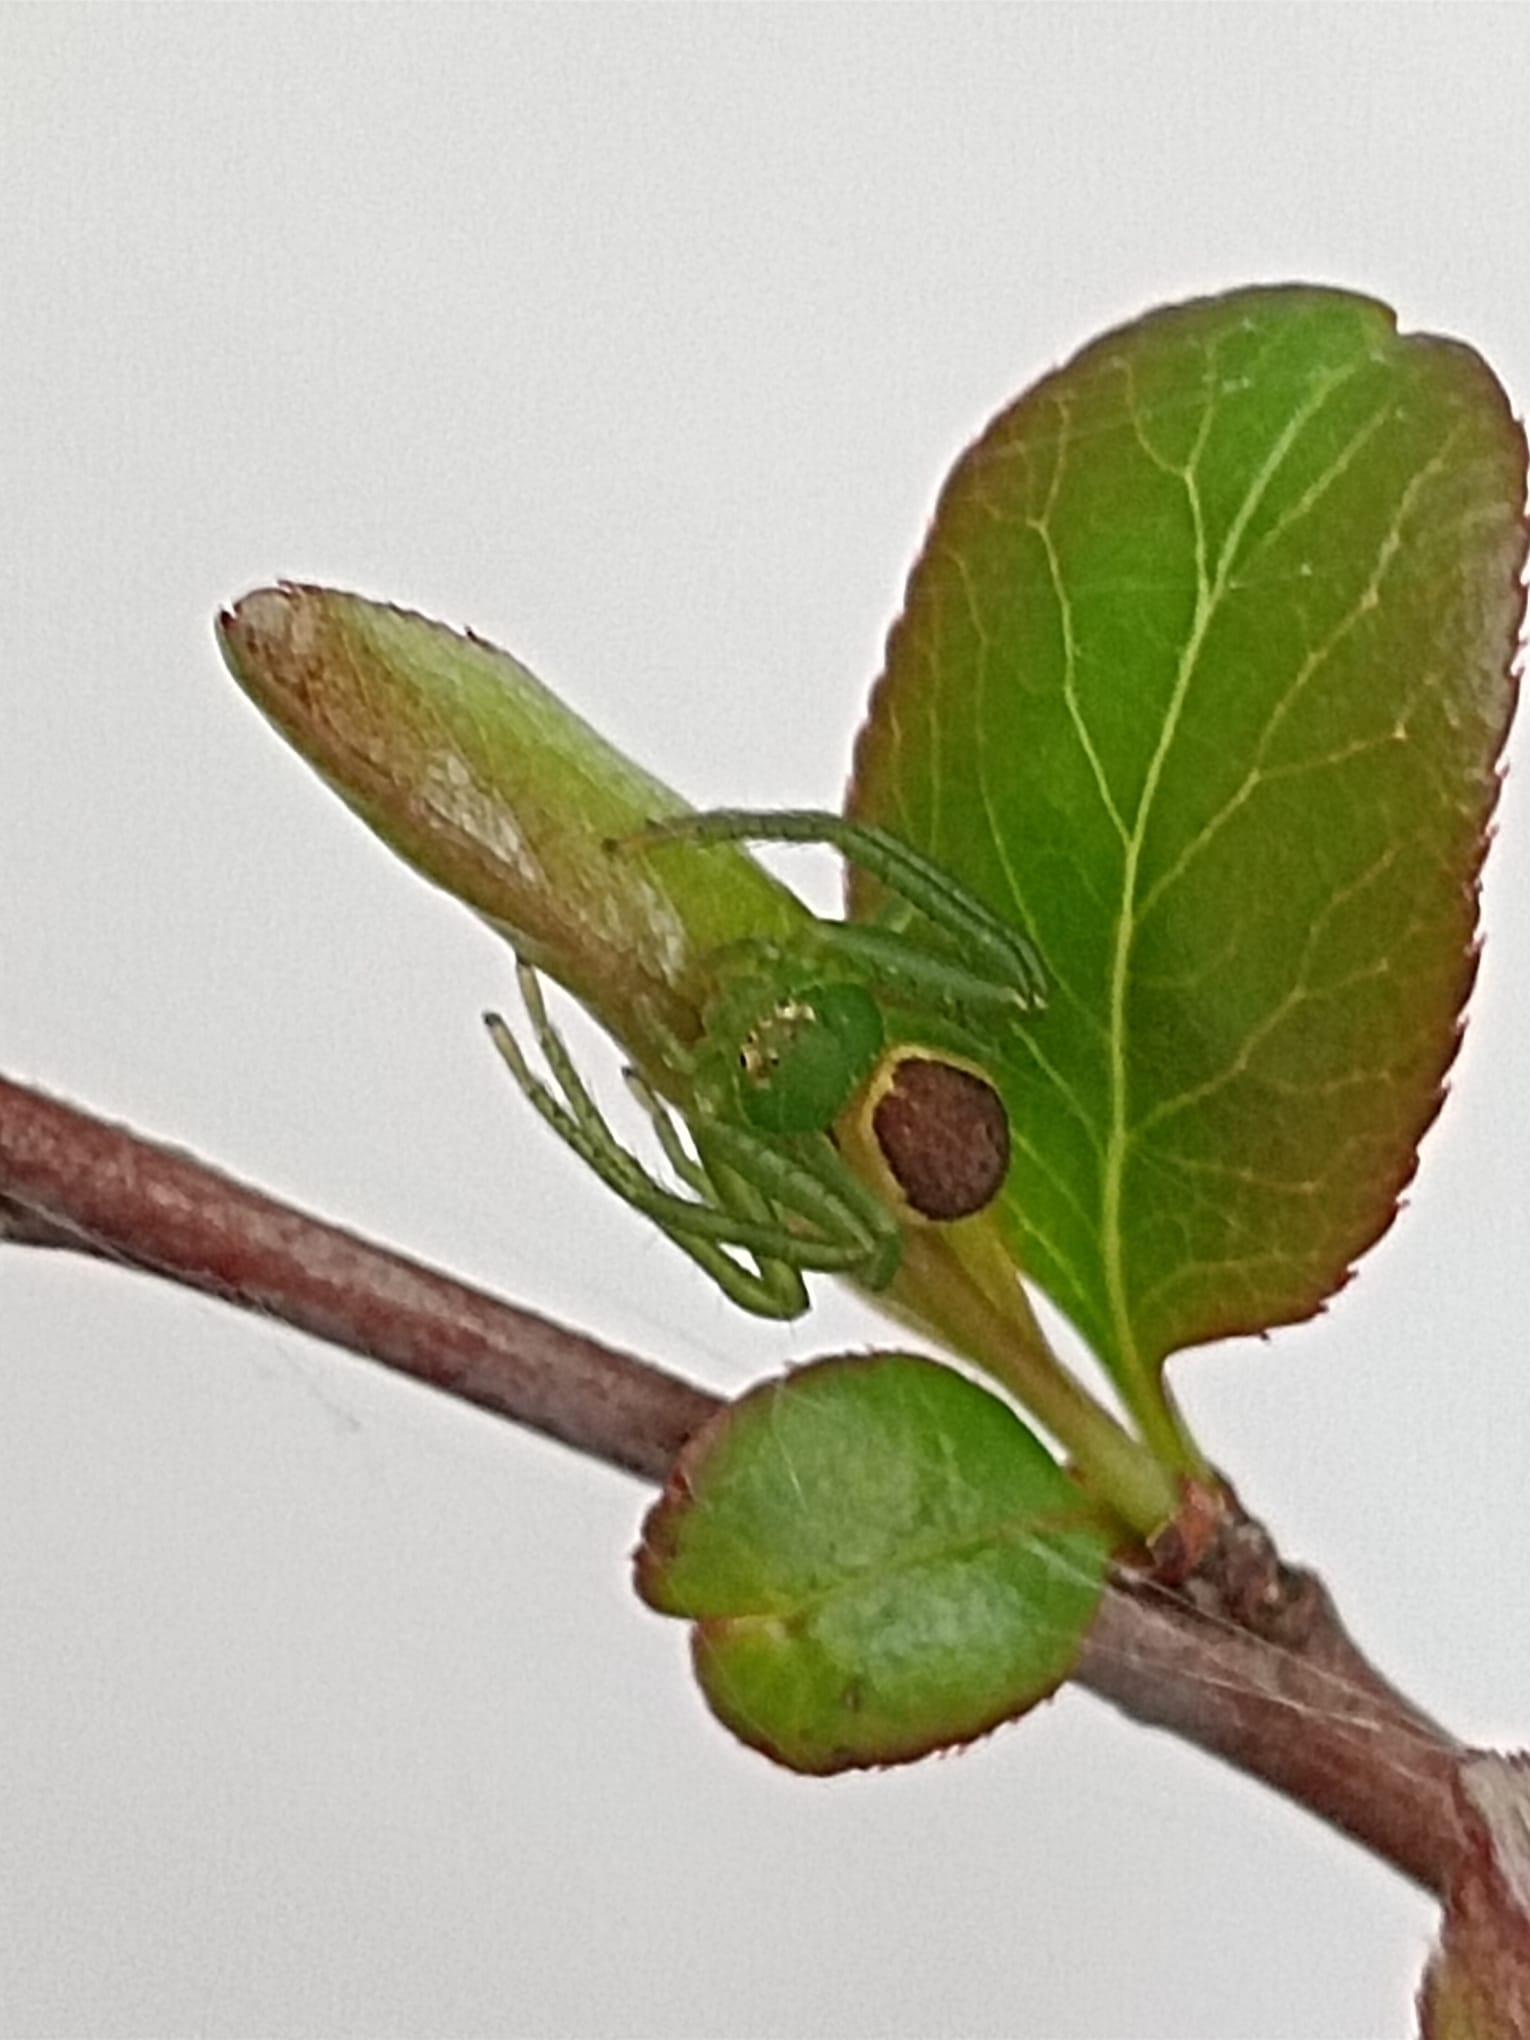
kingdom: Animalia
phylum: Arthropoda
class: Arachnida
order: Araneae
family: Thomisidae
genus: Diaea
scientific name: Diaea dorsata
